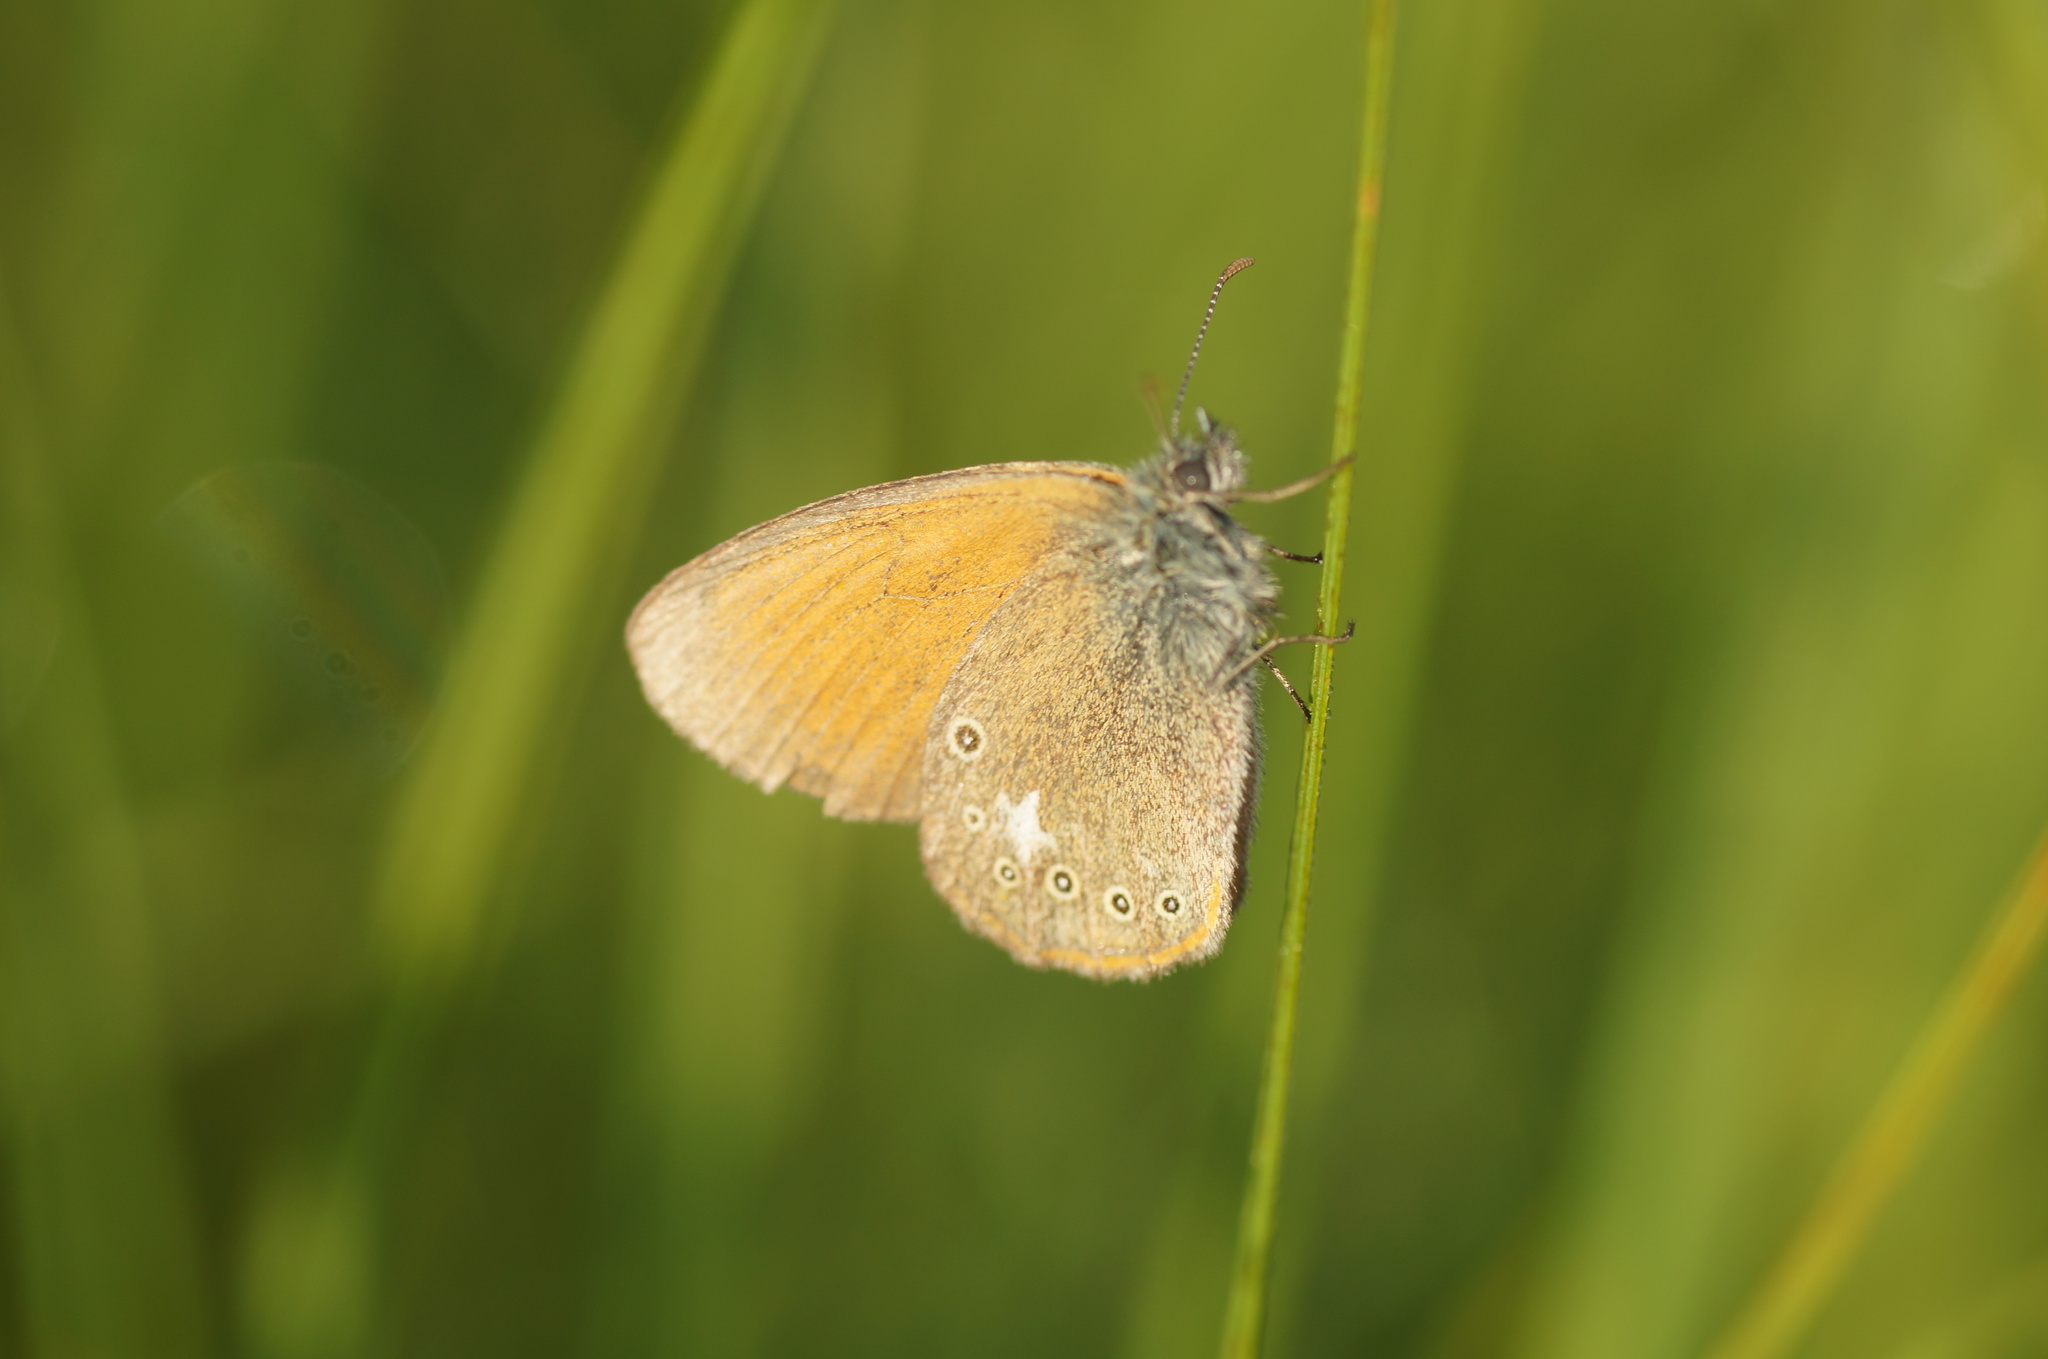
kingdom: Animalia
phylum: Arthropoda
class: Insecta
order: Lepidoptera
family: Nymphalidae
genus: Coenonympha
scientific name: Coenonympha iphis
